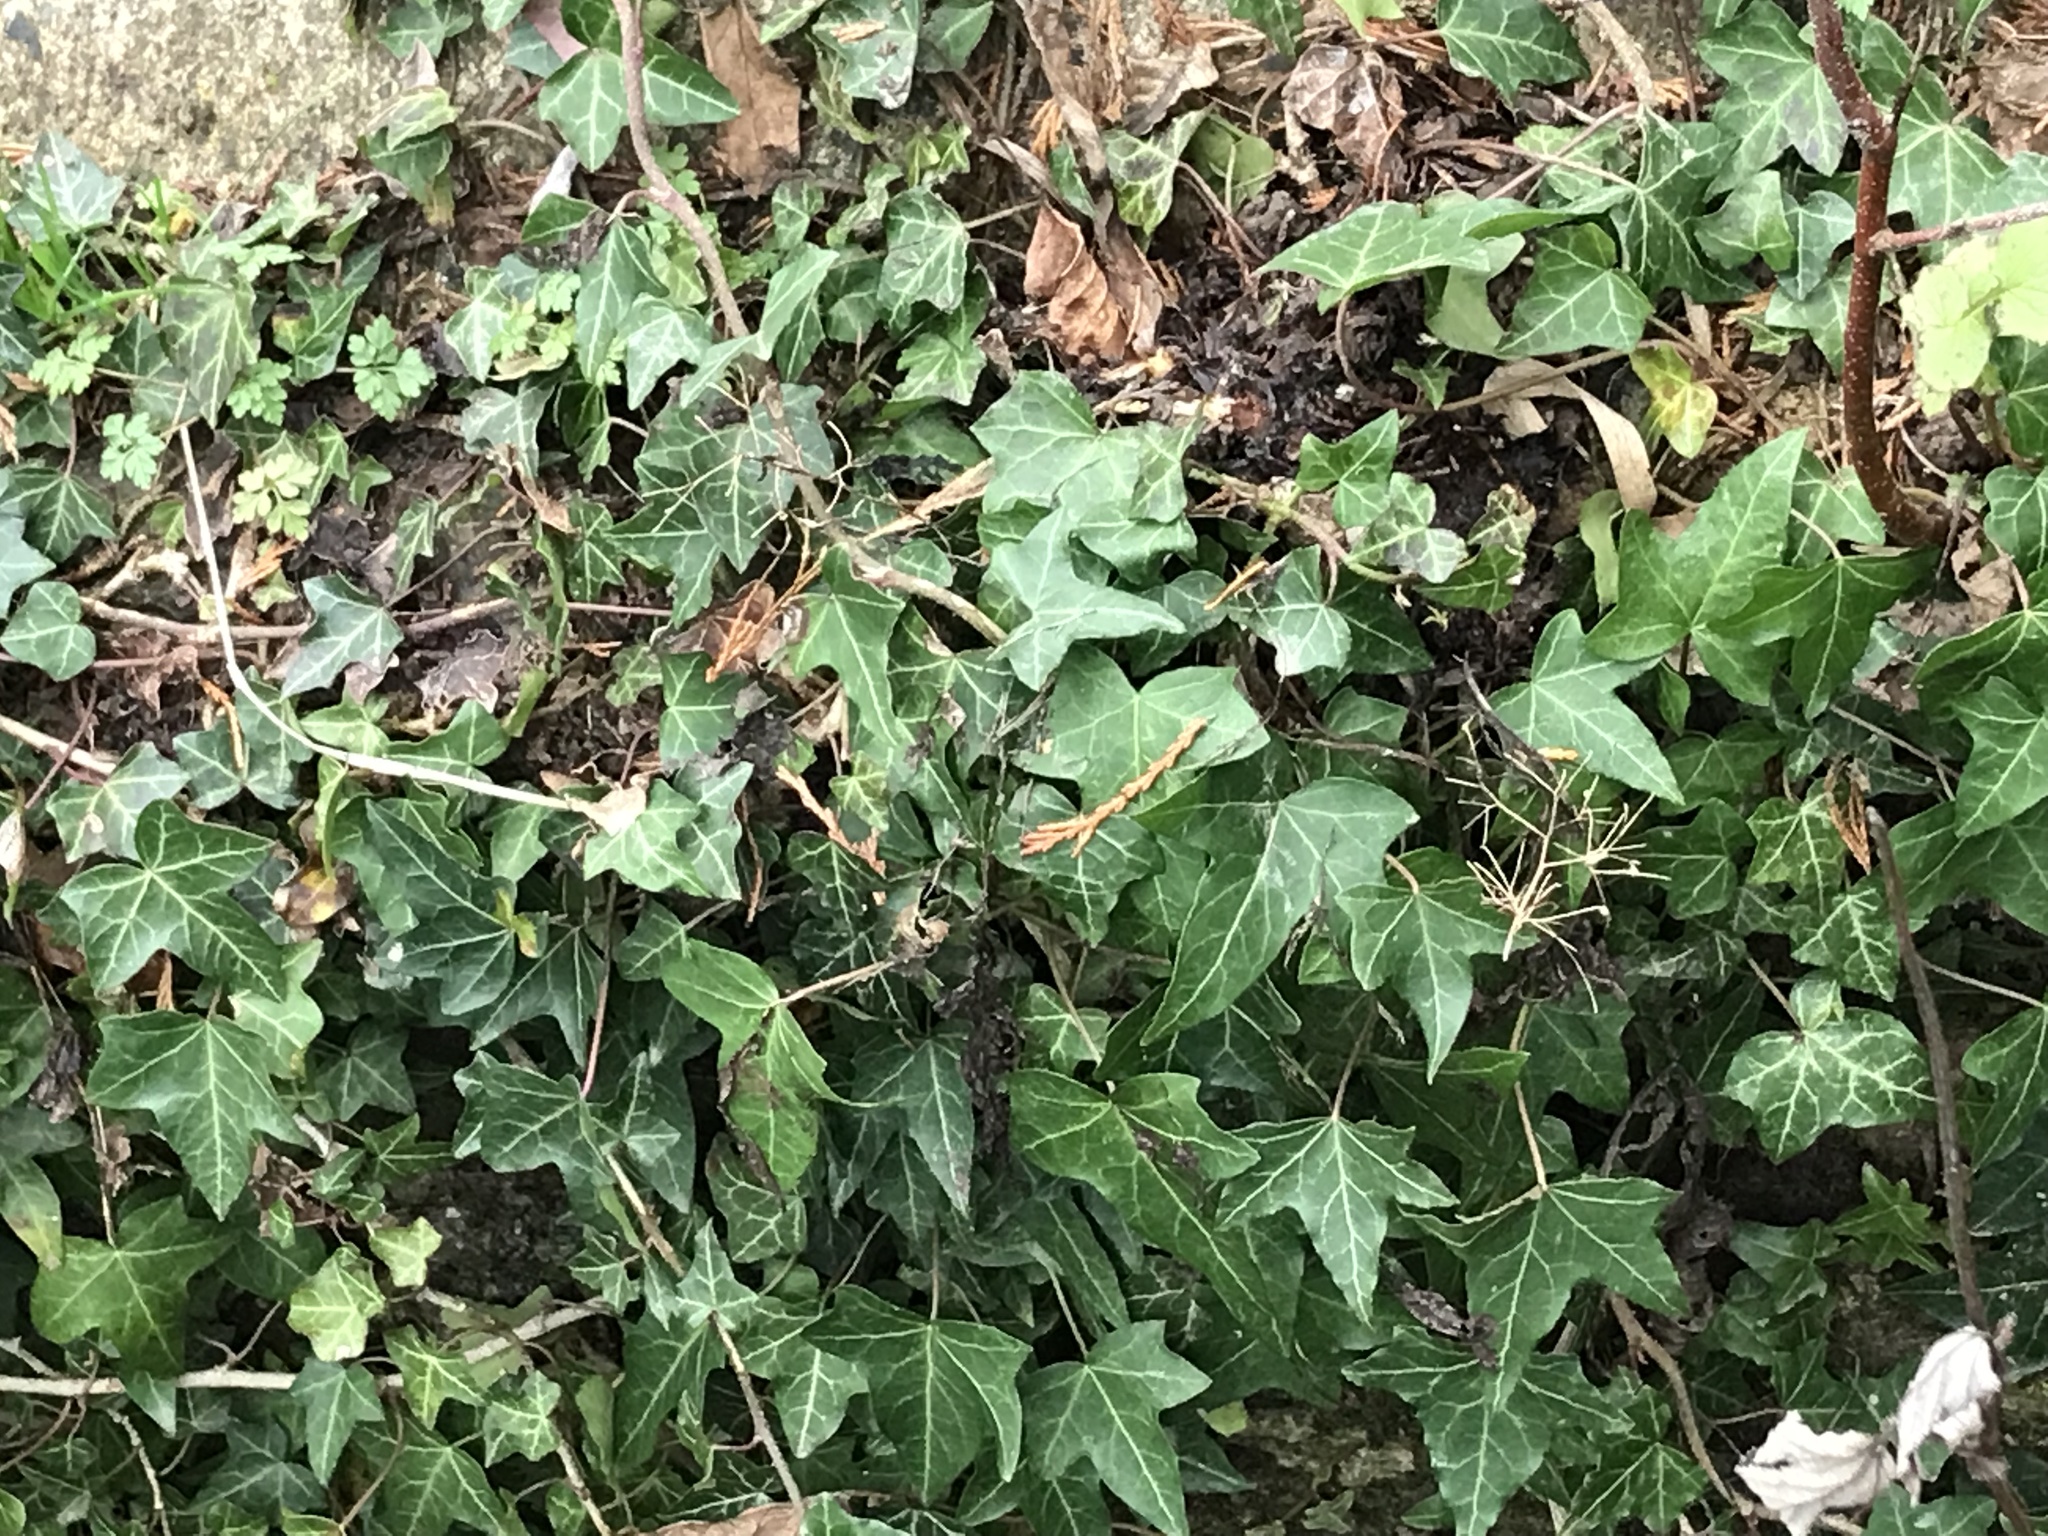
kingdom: Plantae
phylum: Tracheophyta
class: Magnoliopsida
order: Apiales
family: Araliaceae
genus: Hedera
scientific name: Hedera helix
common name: Ivy
